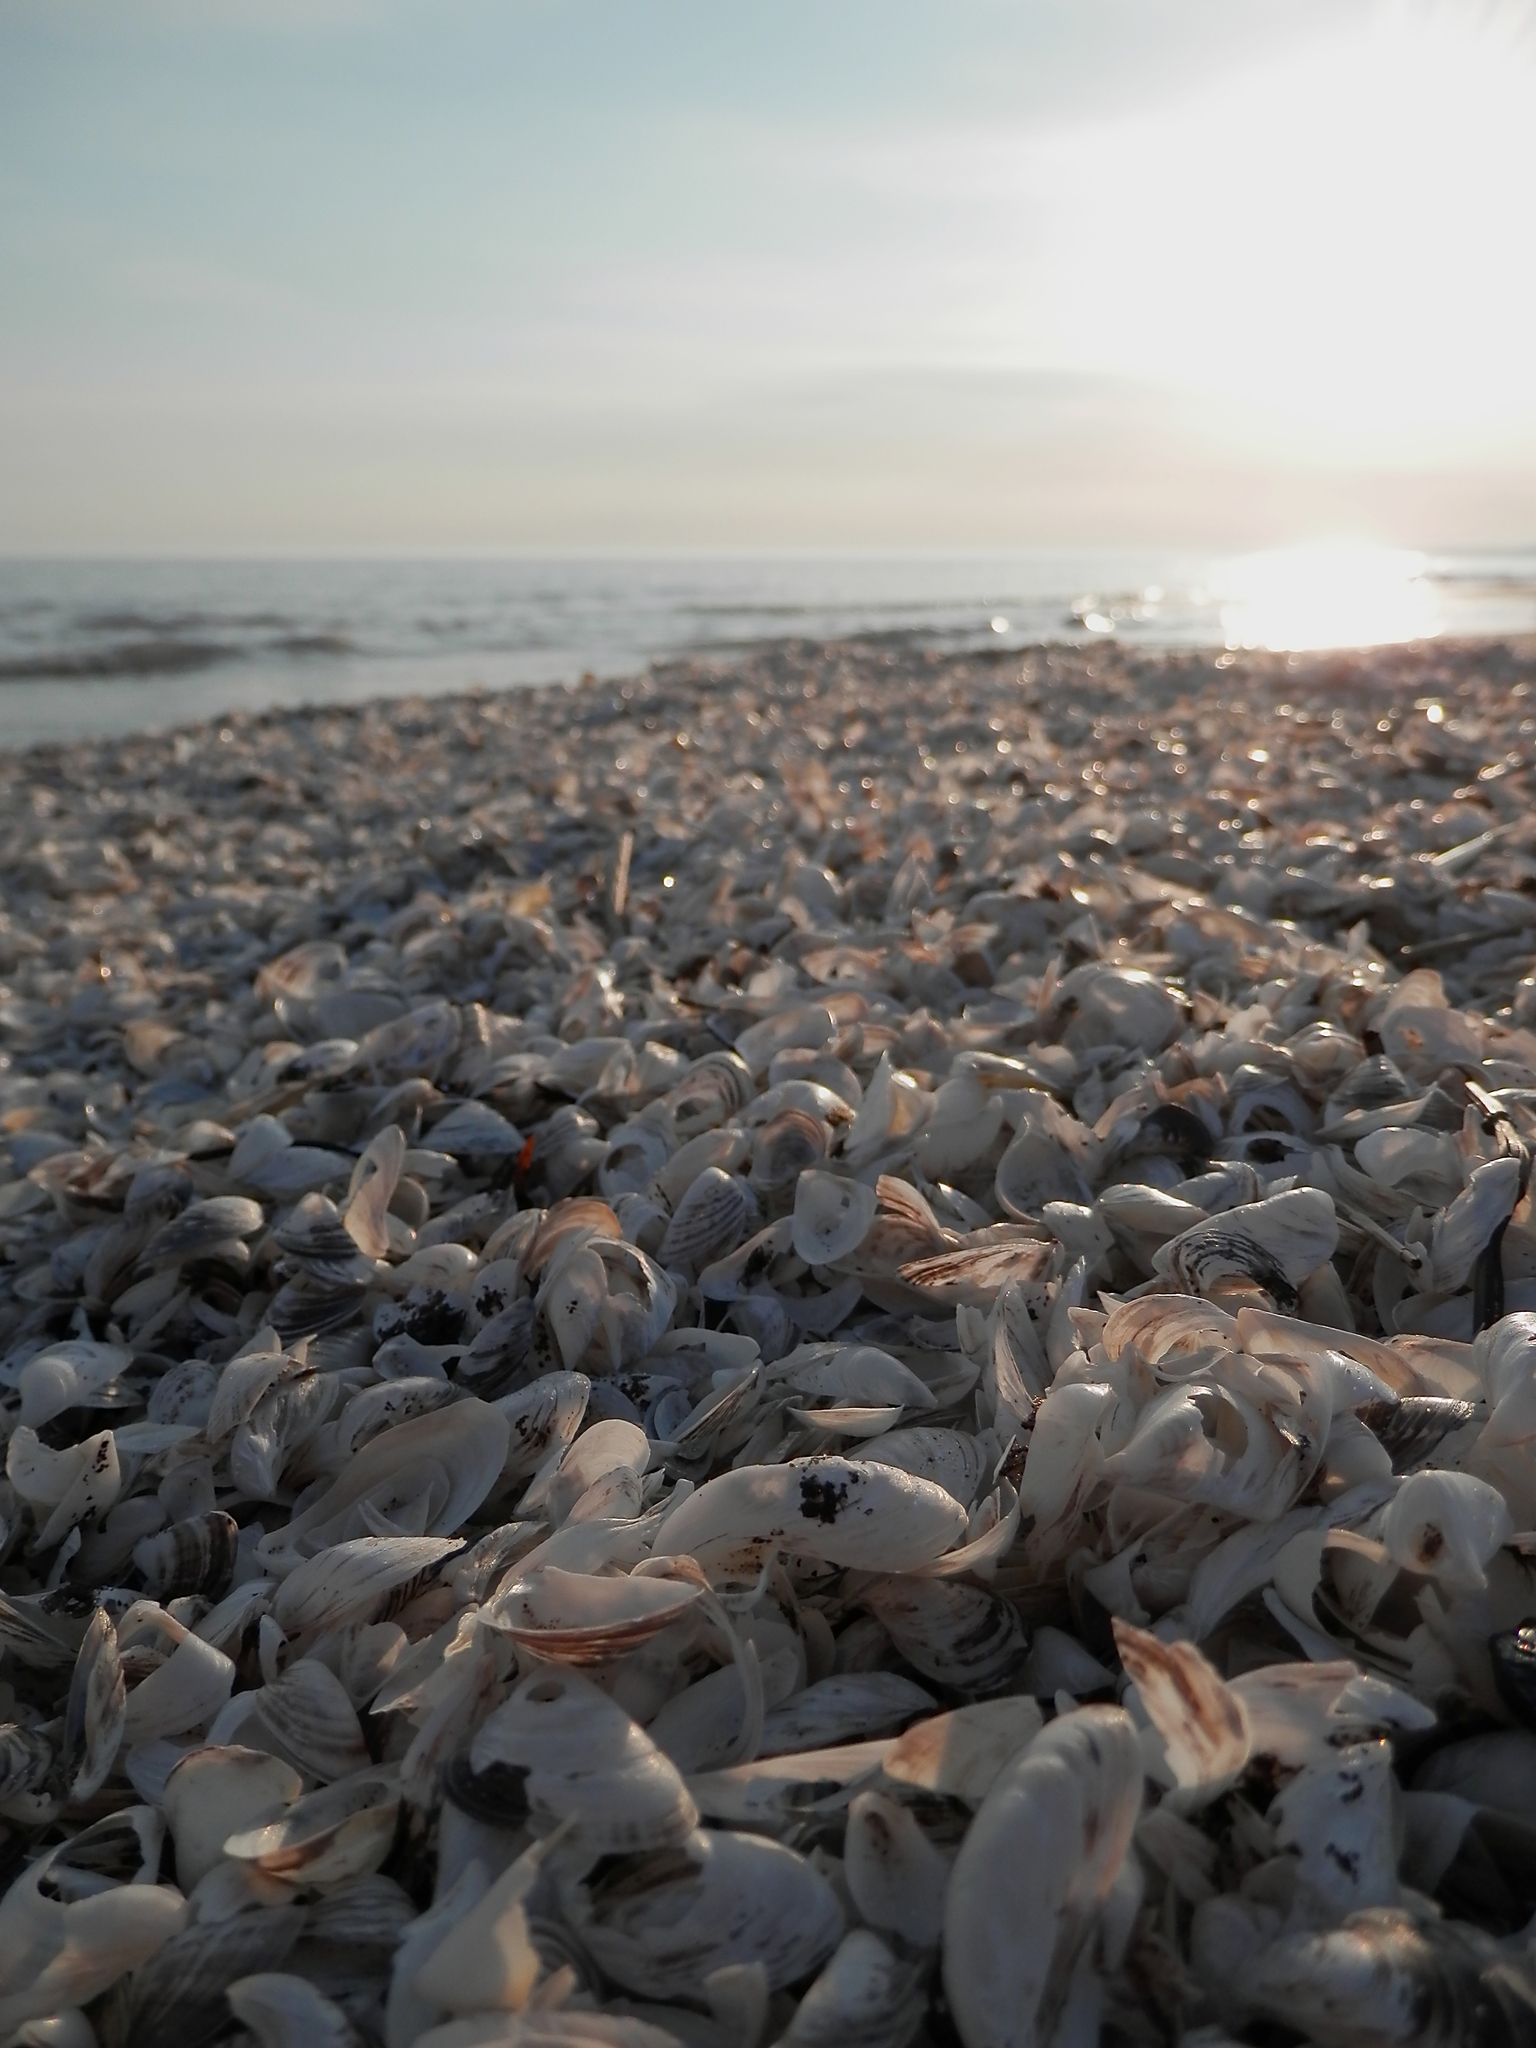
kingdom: Animalia
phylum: Mollusca
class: Bivalvia
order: Myida
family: Dreissenidae
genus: Dreissena
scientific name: Dreissena polymorpha
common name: Zebra mussel
